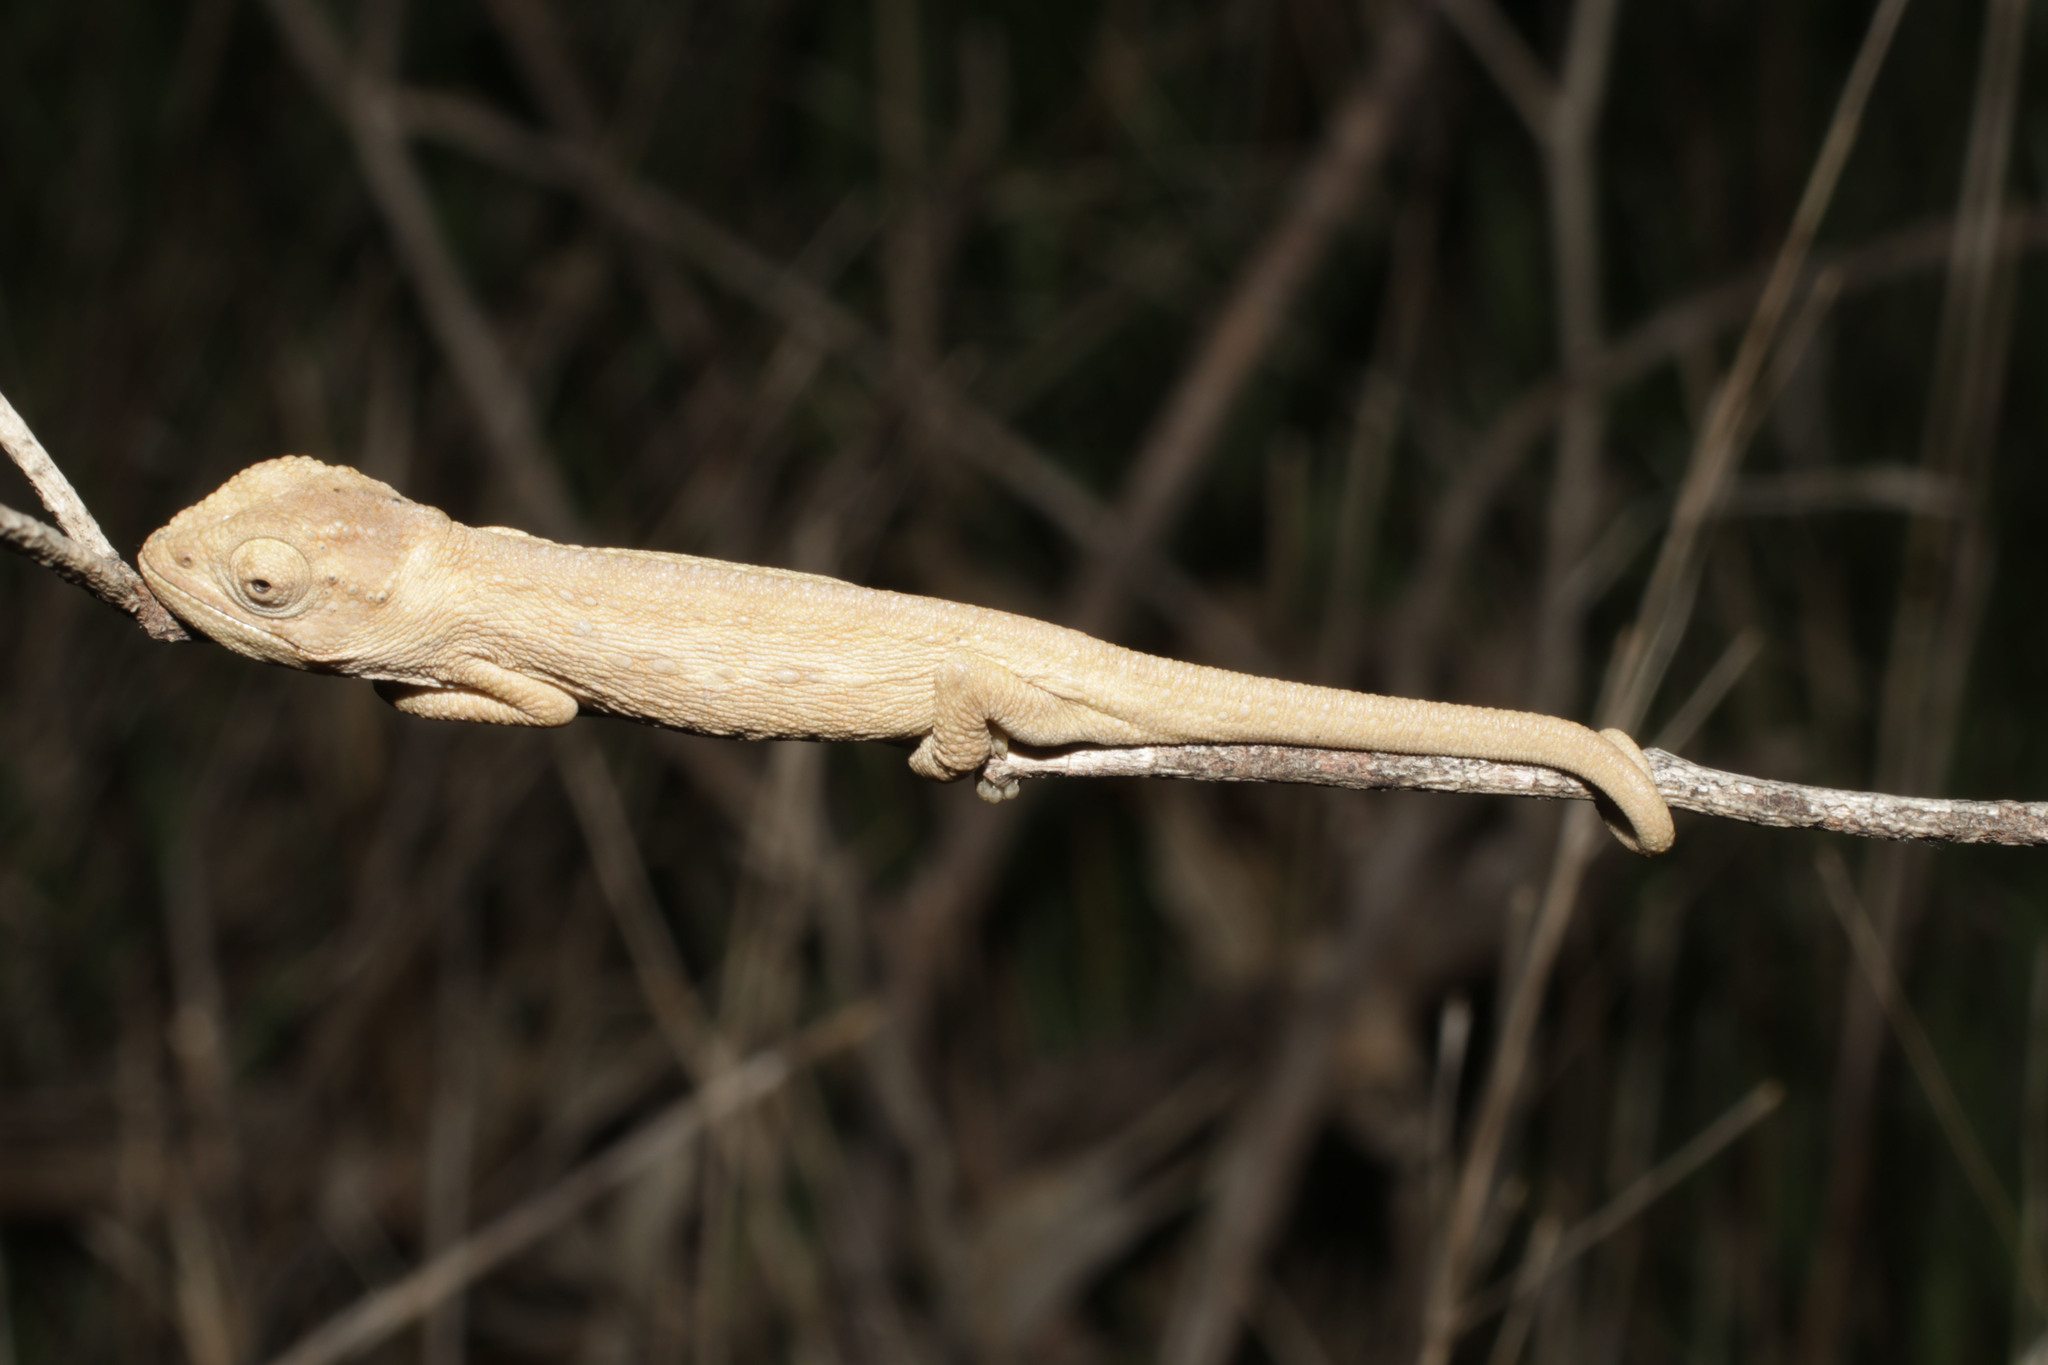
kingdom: Animalia
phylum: Chordata
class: Squamata
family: Chamaeleonidae
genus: Bradypodion
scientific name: Bradypodion pumilum
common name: Cape dwarf chameleon
